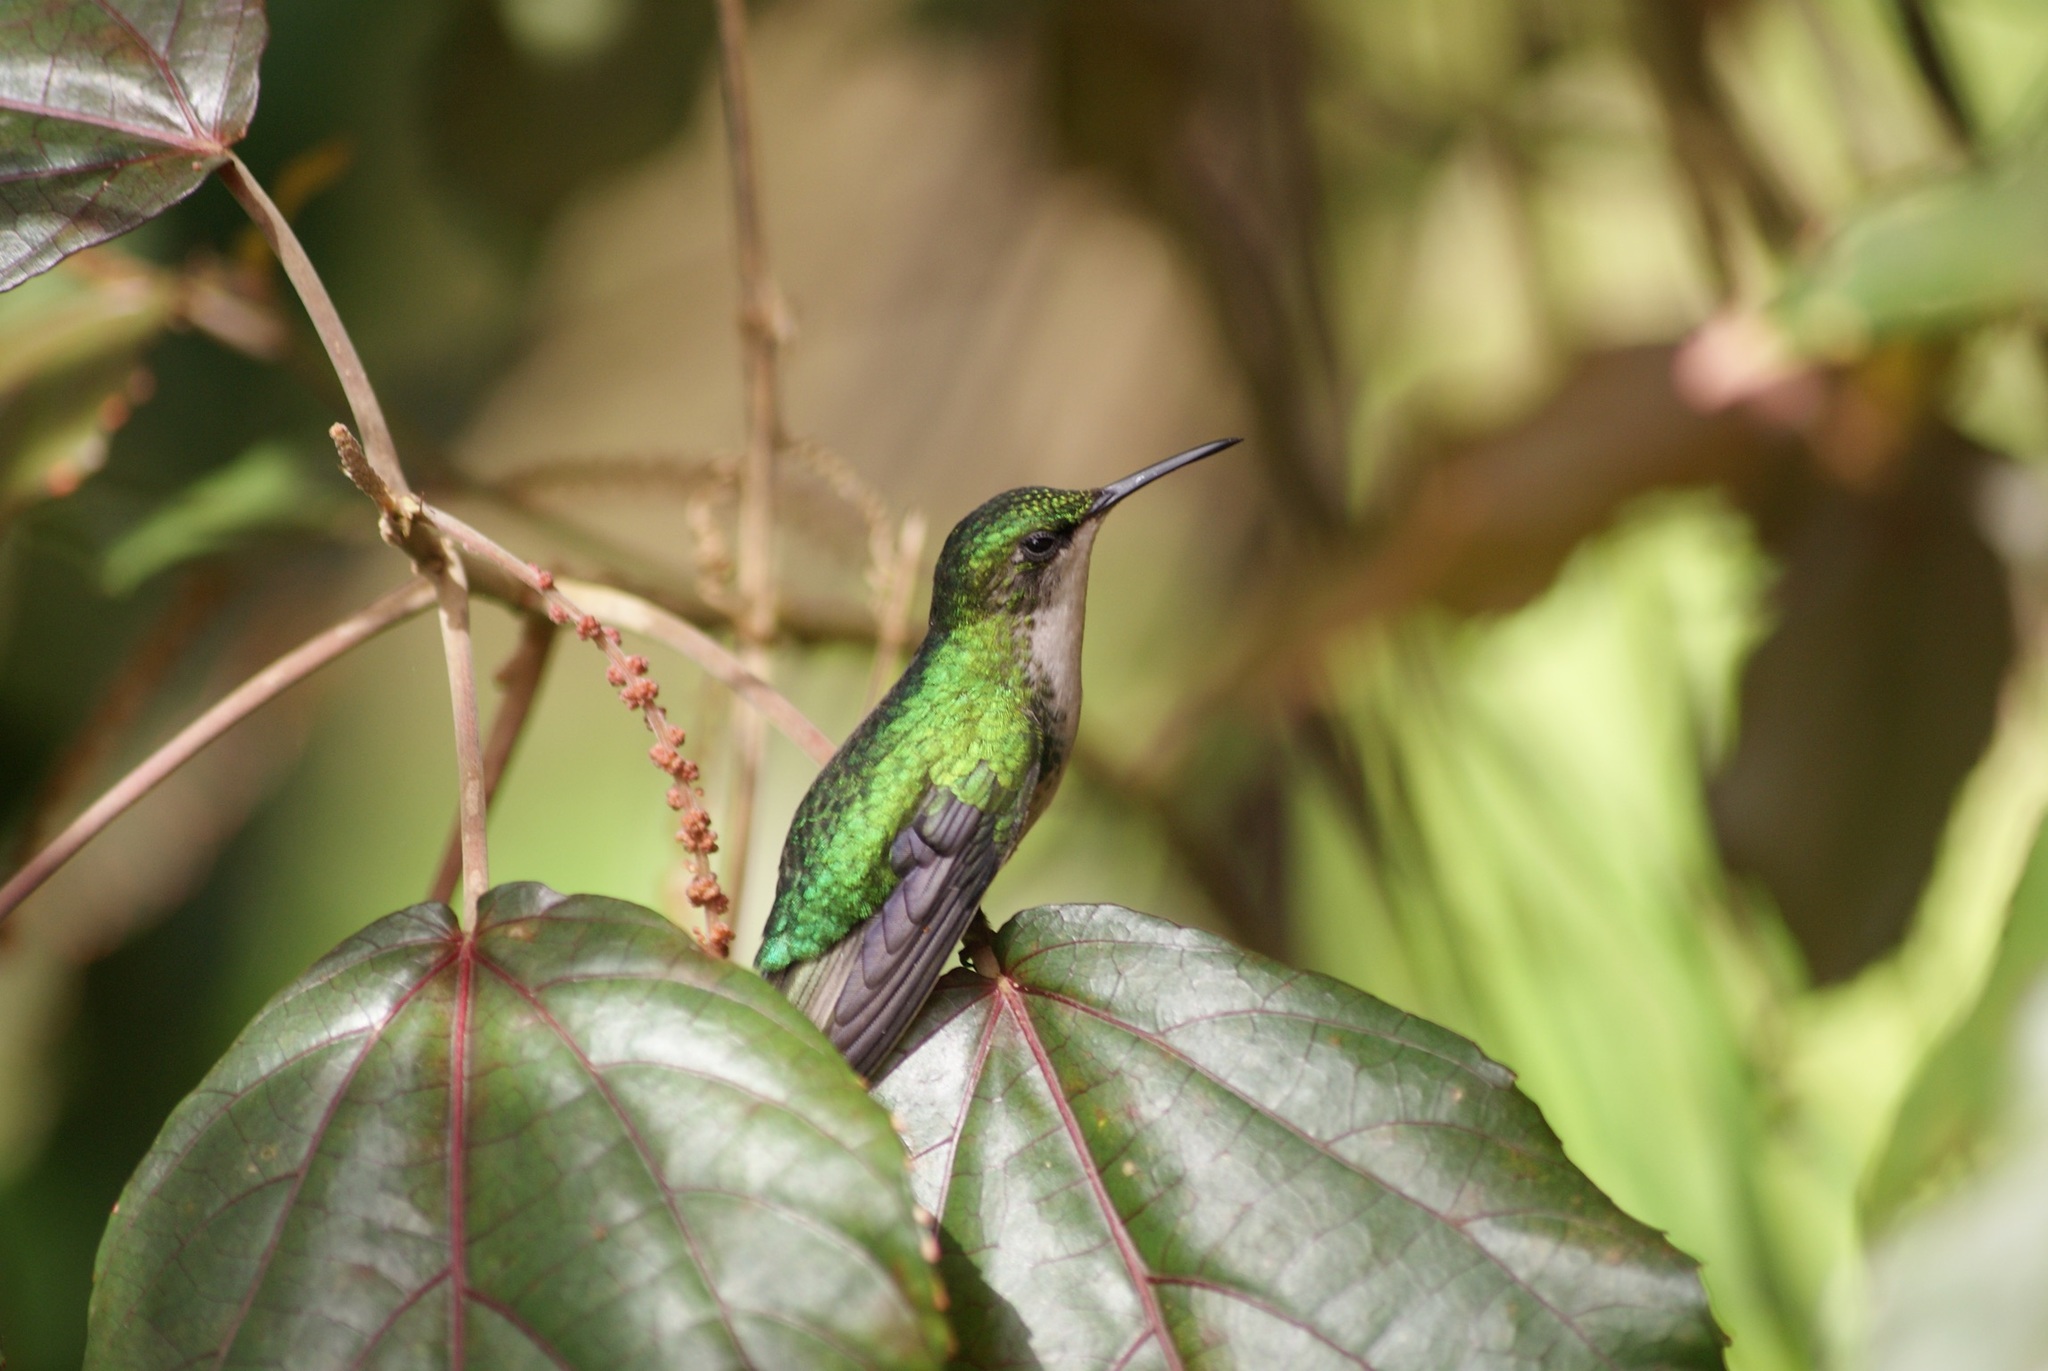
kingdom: Animalia
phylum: Chordata
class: Aves
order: Apodiformes
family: Trochilidae
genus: Riccordia
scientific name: Riccordia maugaeus
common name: Puerto rican emerald
